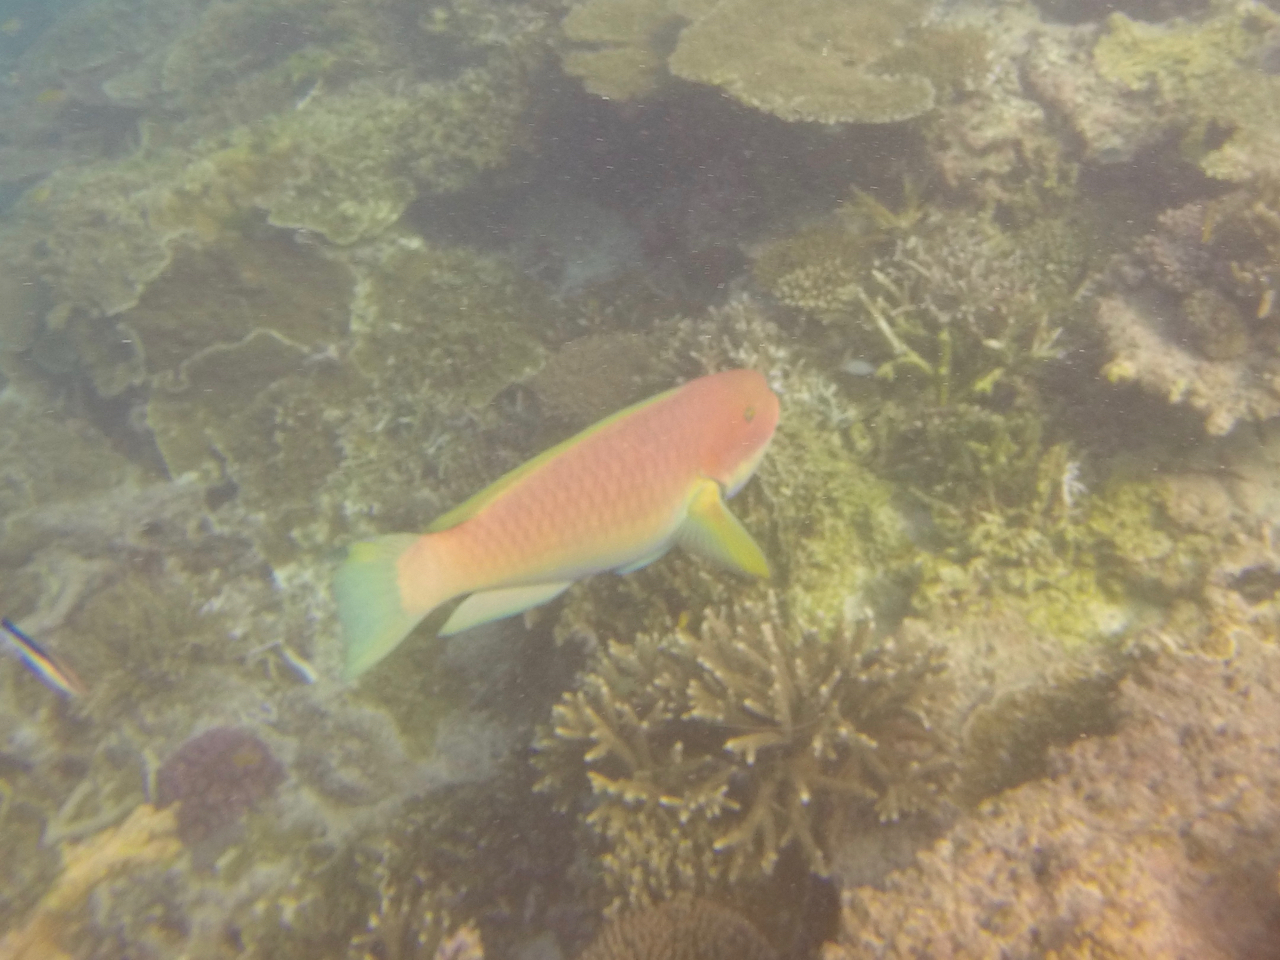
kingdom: Animalia
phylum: Chordata
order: Perciformes
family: Scaridae
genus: Chlorurus
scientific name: Chlorurus microrhinos
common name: Steephead parrotfish
